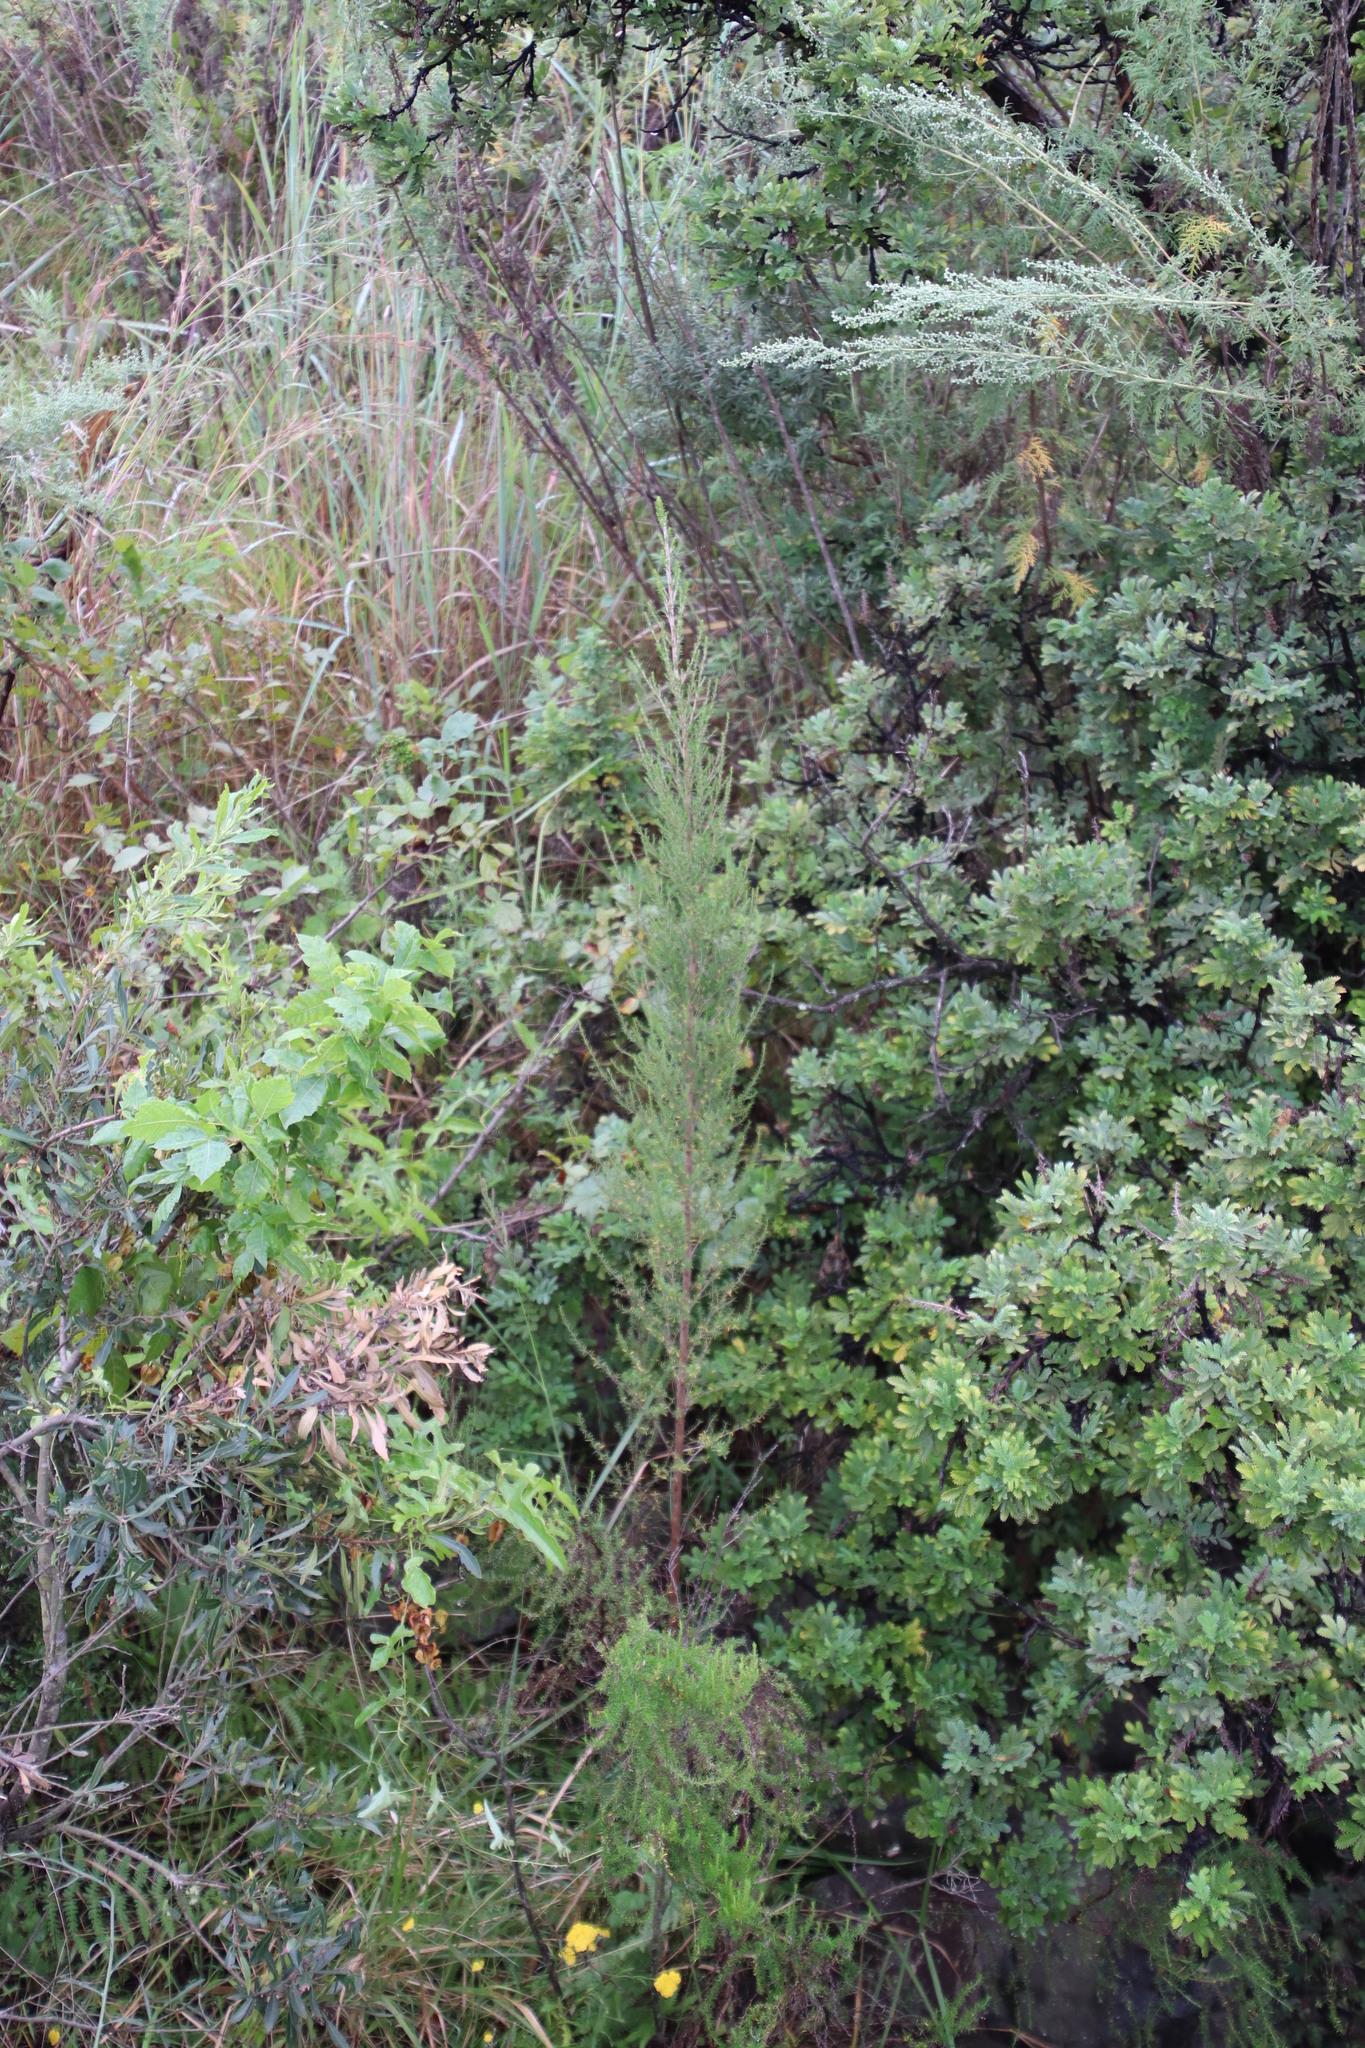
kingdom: Plantae
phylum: Tracheophyta
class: Magnoliopsida
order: Rosales
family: Rosaceae
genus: Cliffortia
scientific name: Cliffortia linearifolia
